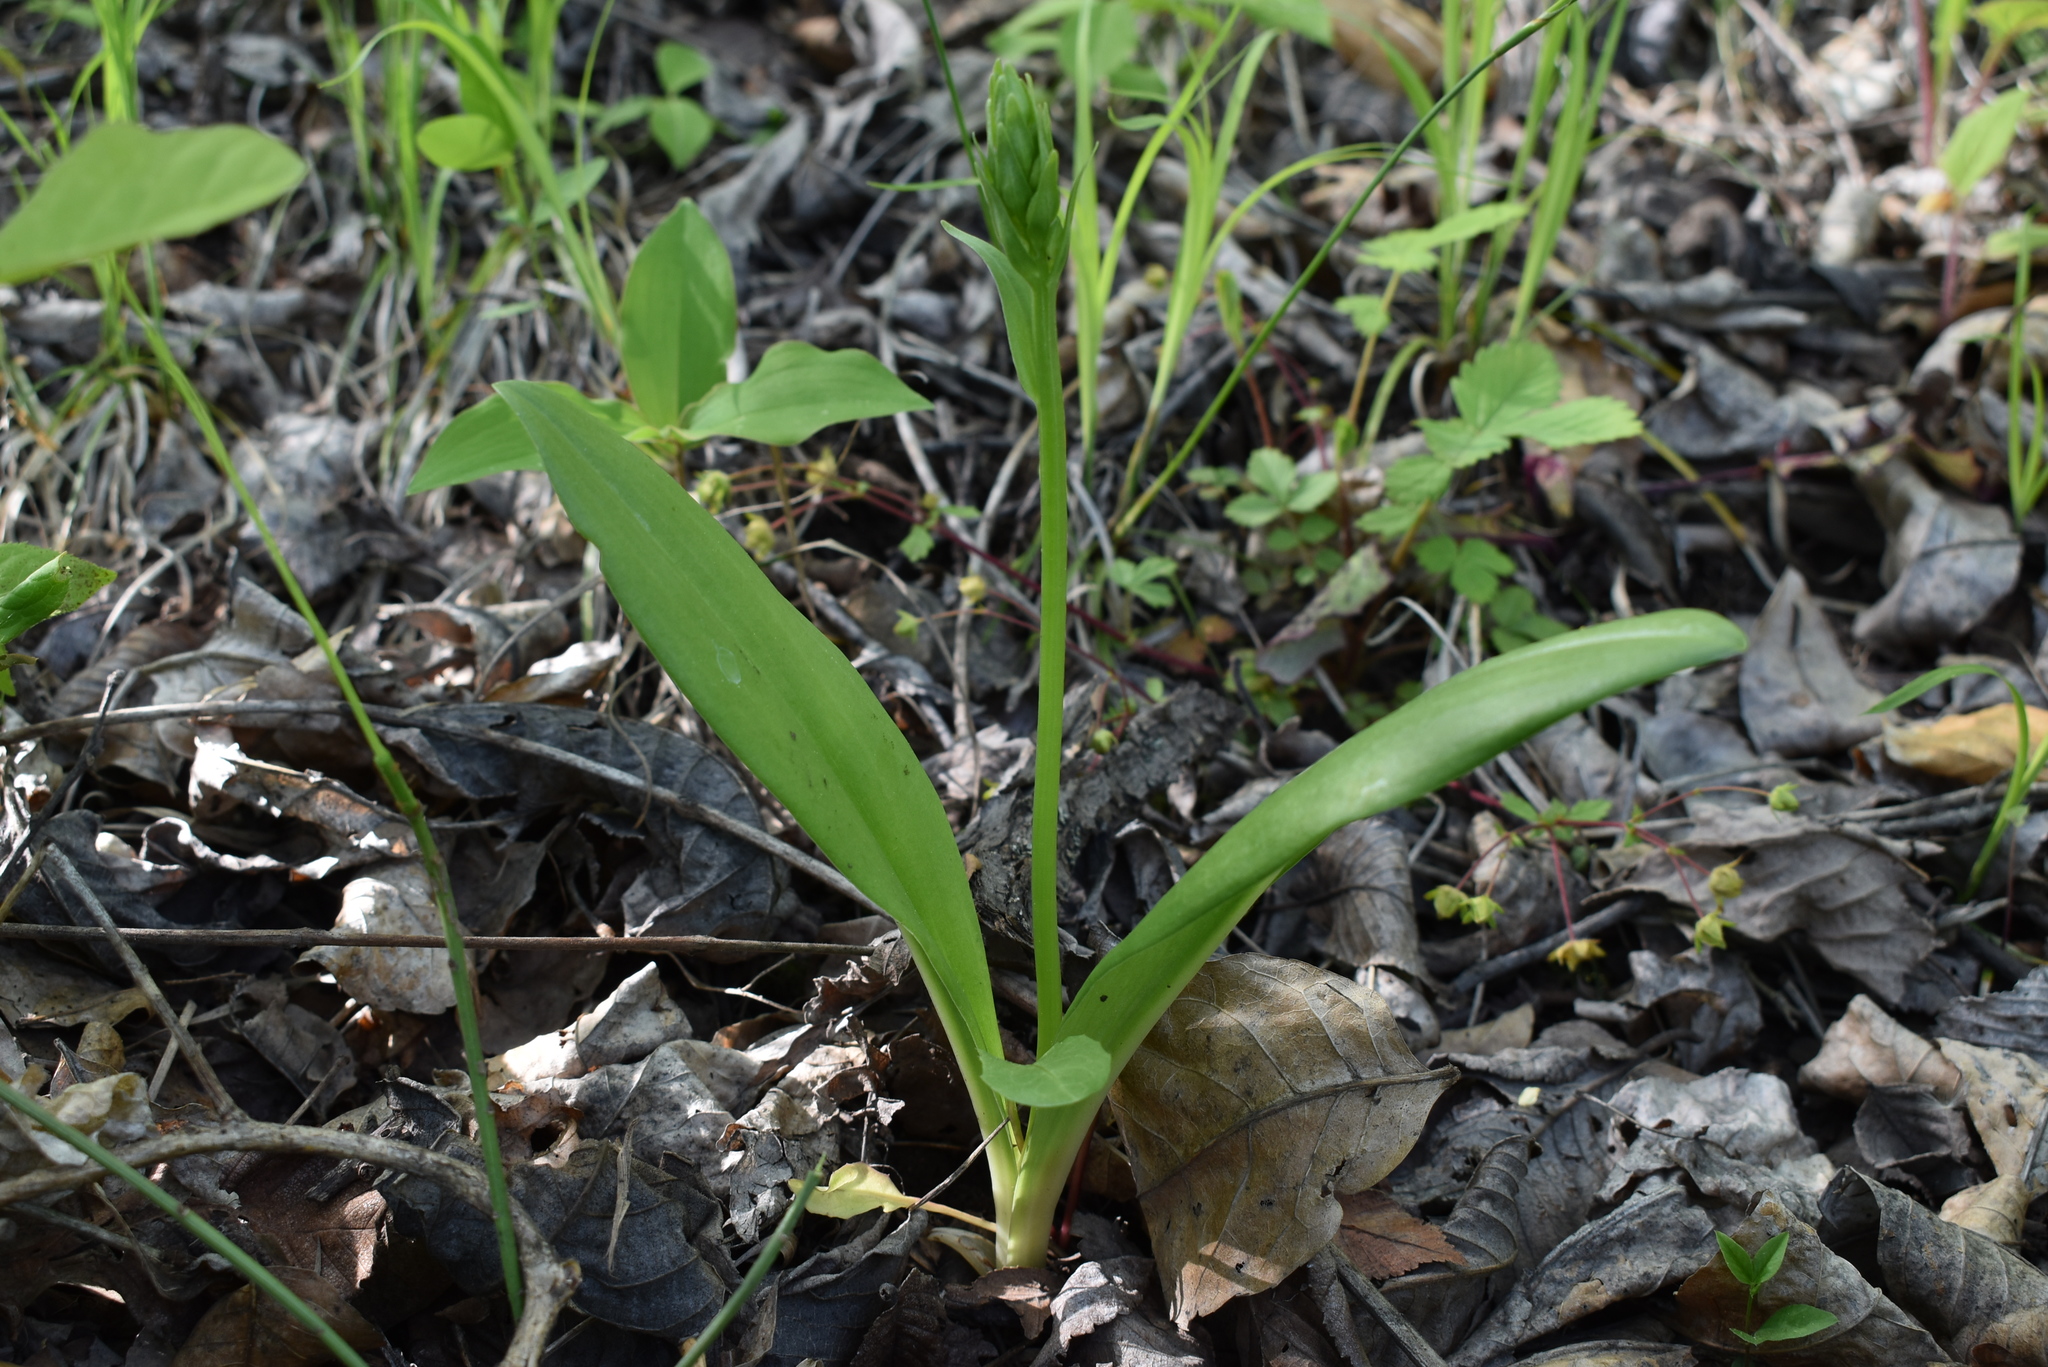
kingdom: Plantae
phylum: Tracheophyta
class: Liliopsida
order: Asparagales
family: Orchidaceae
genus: Platanthera
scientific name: Platanthera densa
